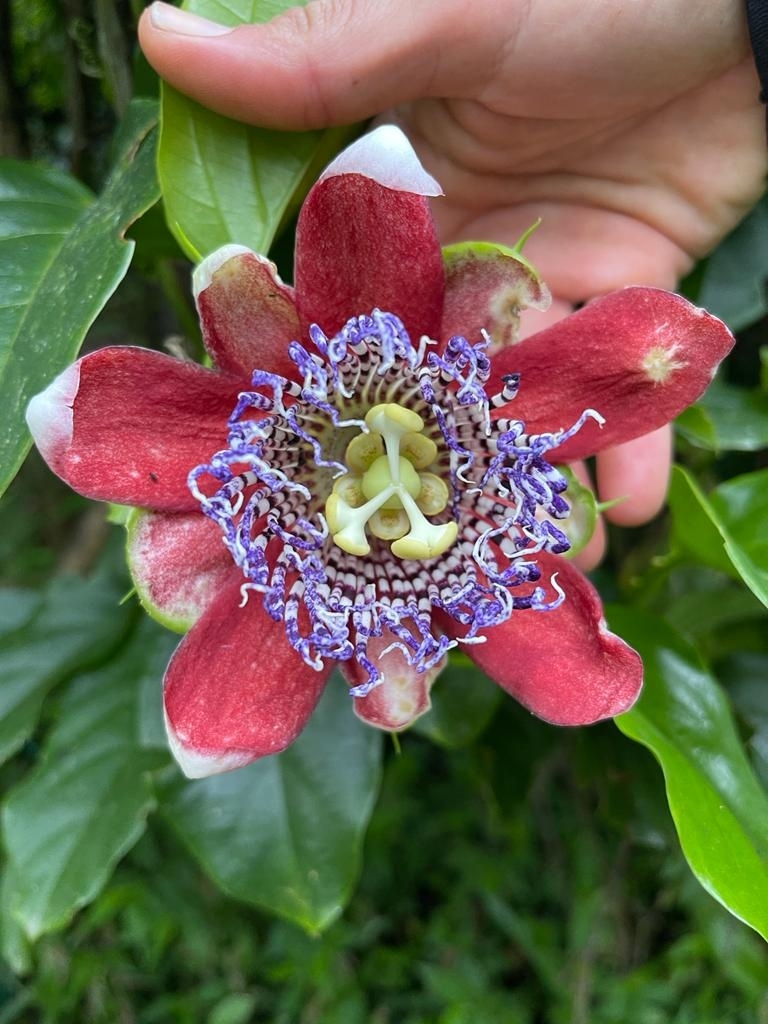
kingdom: Plantae
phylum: Tracheophyta
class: Magnoliopsida
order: Malpighiales
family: Passifloraceae
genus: Passiflora
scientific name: Passiflora alata
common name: Wing-stemmed passion flower
